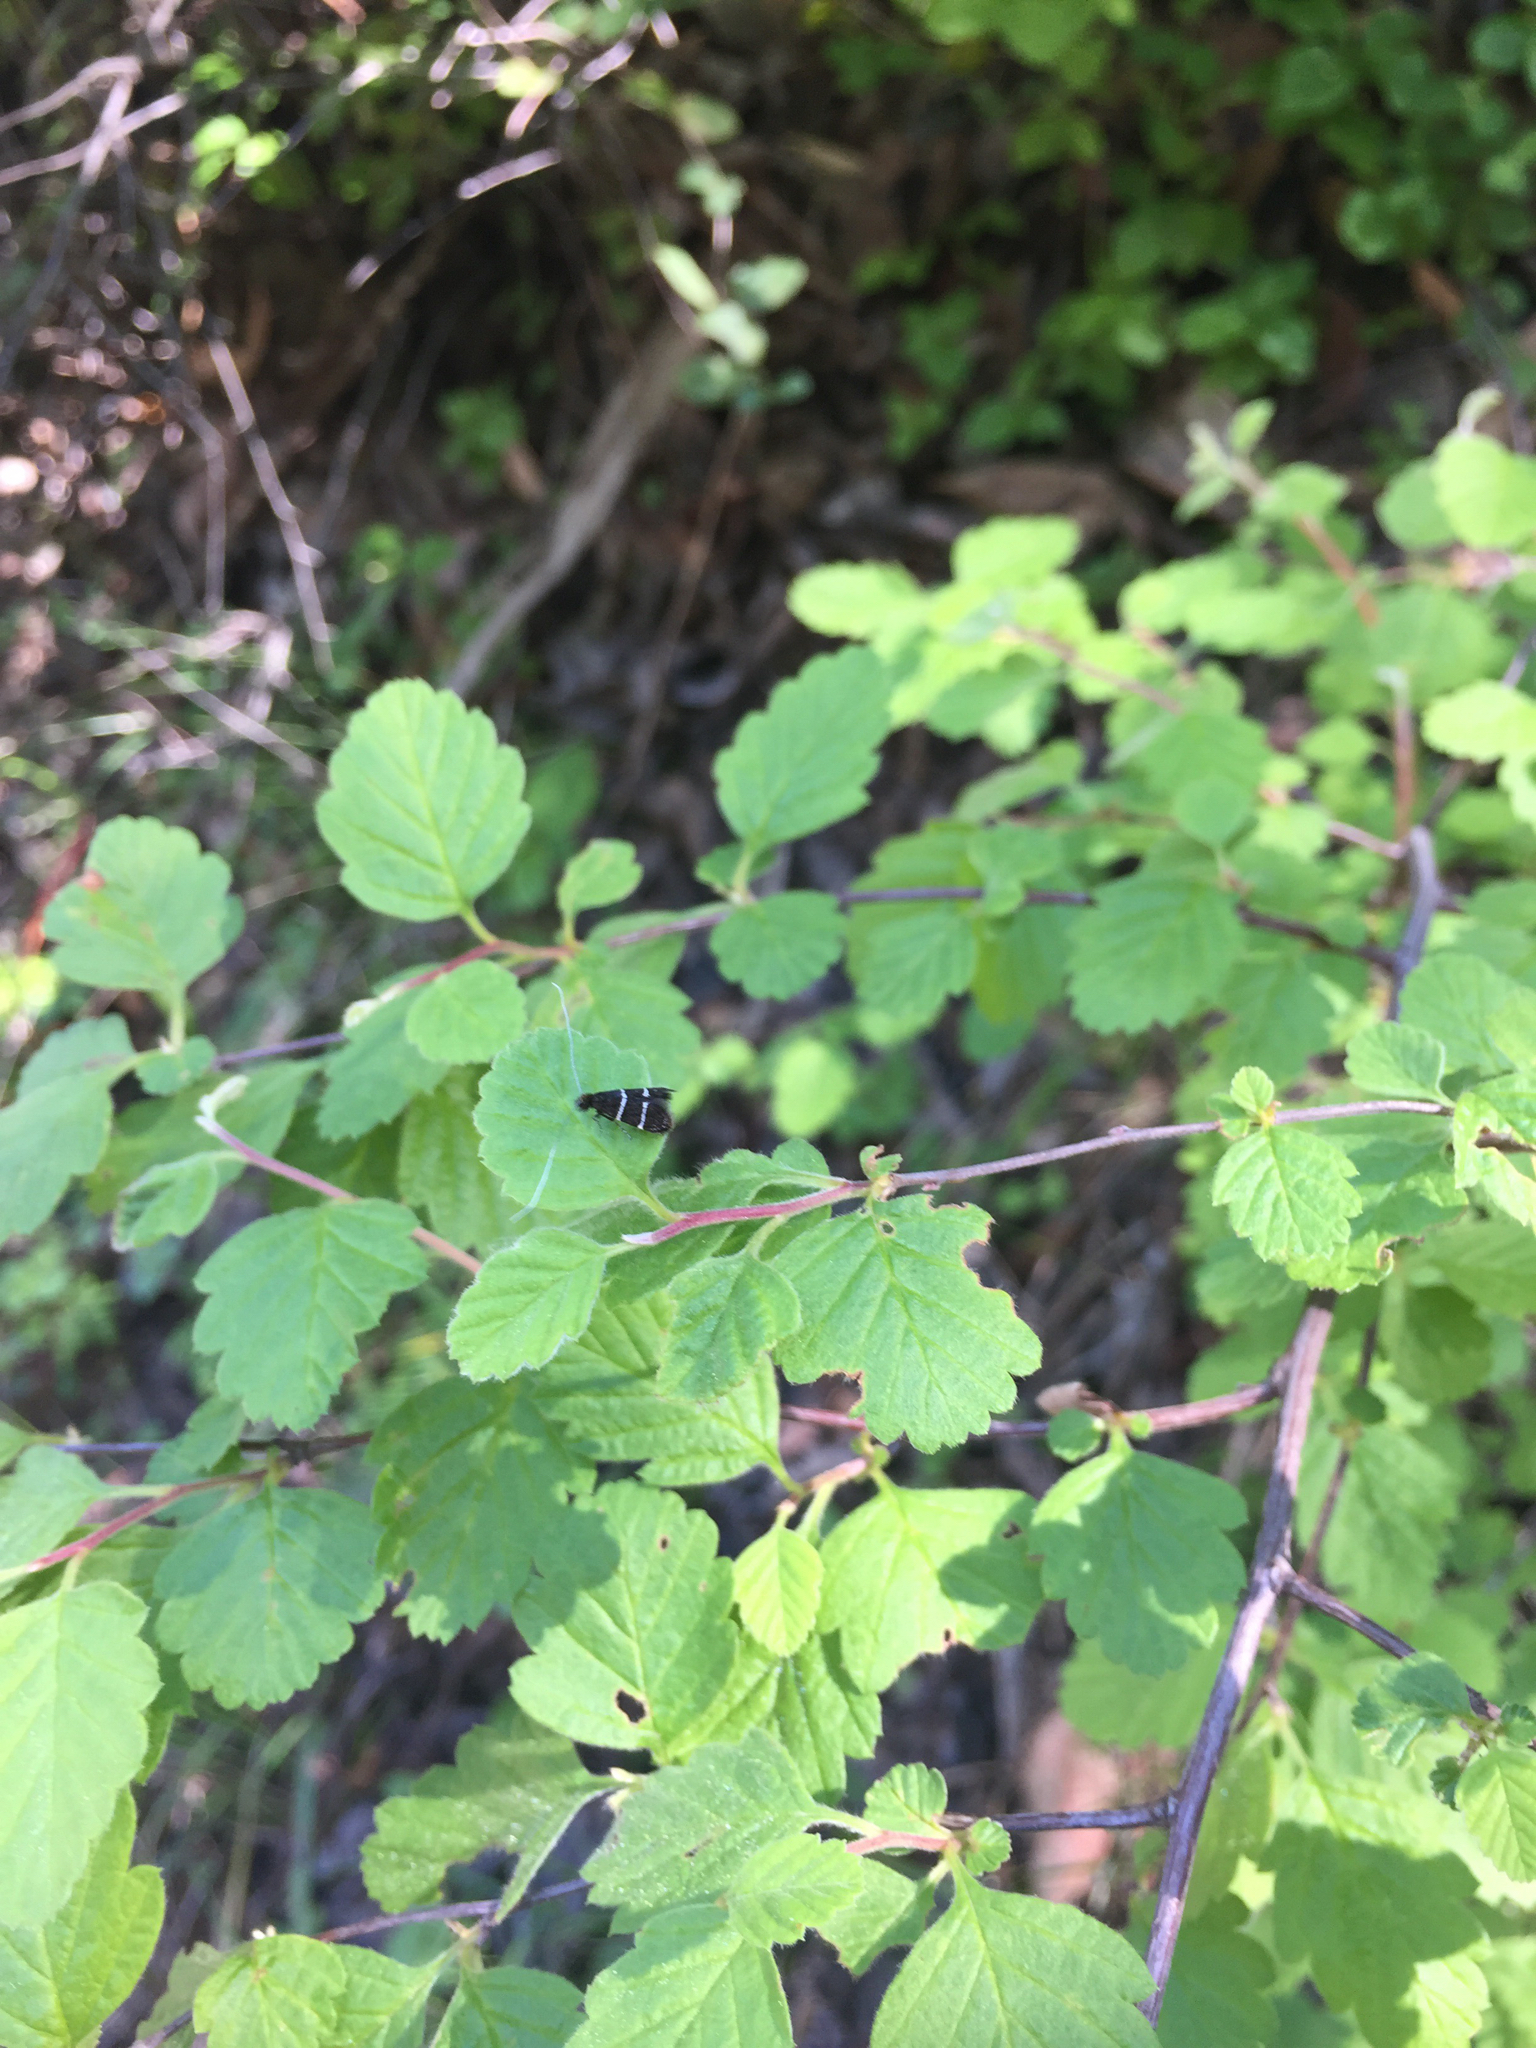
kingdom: Plantae
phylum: Tracheophyta
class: Magnoliopsida
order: Rosales
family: Rosaceae
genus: Holodiscus
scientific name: Holodiscus discolor
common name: Oceanspray
